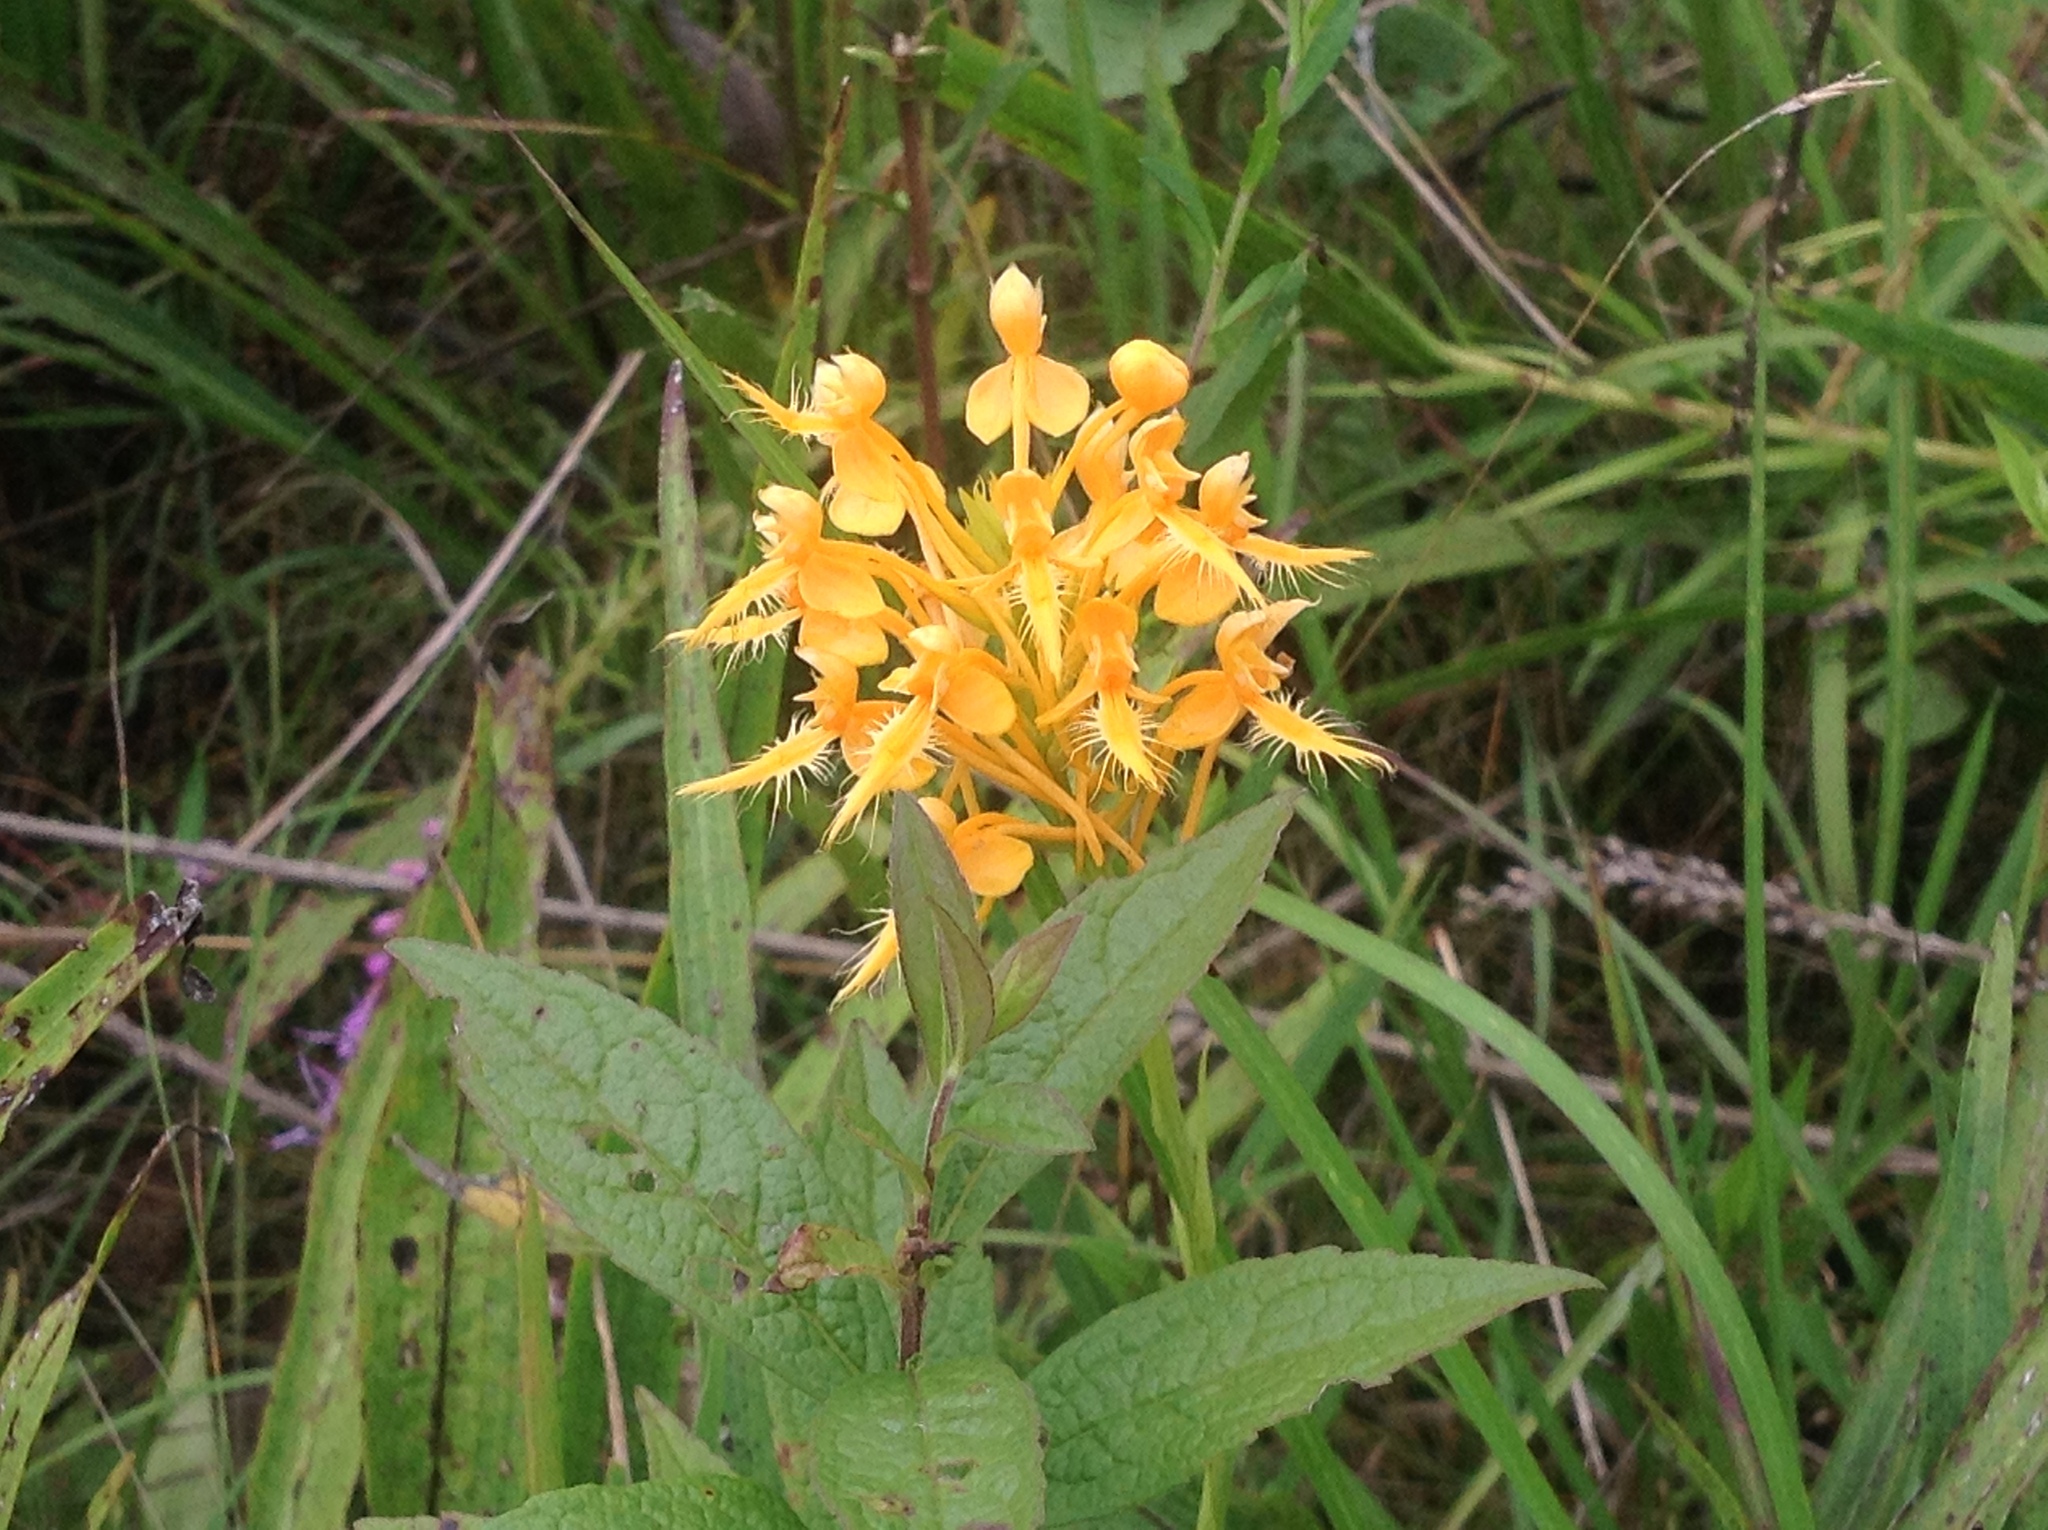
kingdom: Plantae
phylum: Tracheophyta
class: Liliopsida
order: Asparagales
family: Orchidaceae
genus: Platanthera
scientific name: Platanthera ciliaris
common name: Yellow fringed orchid
